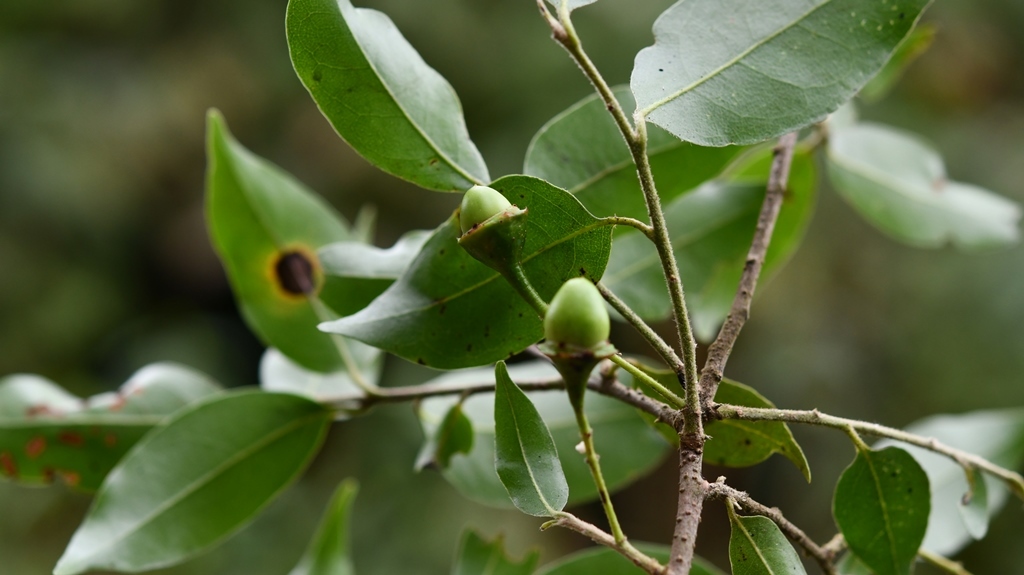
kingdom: Plantae
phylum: Tracheophyta
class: Magnoliopsida
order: Laurales
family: Lauraceae
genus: Licaria
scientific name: Licaria misantlae
